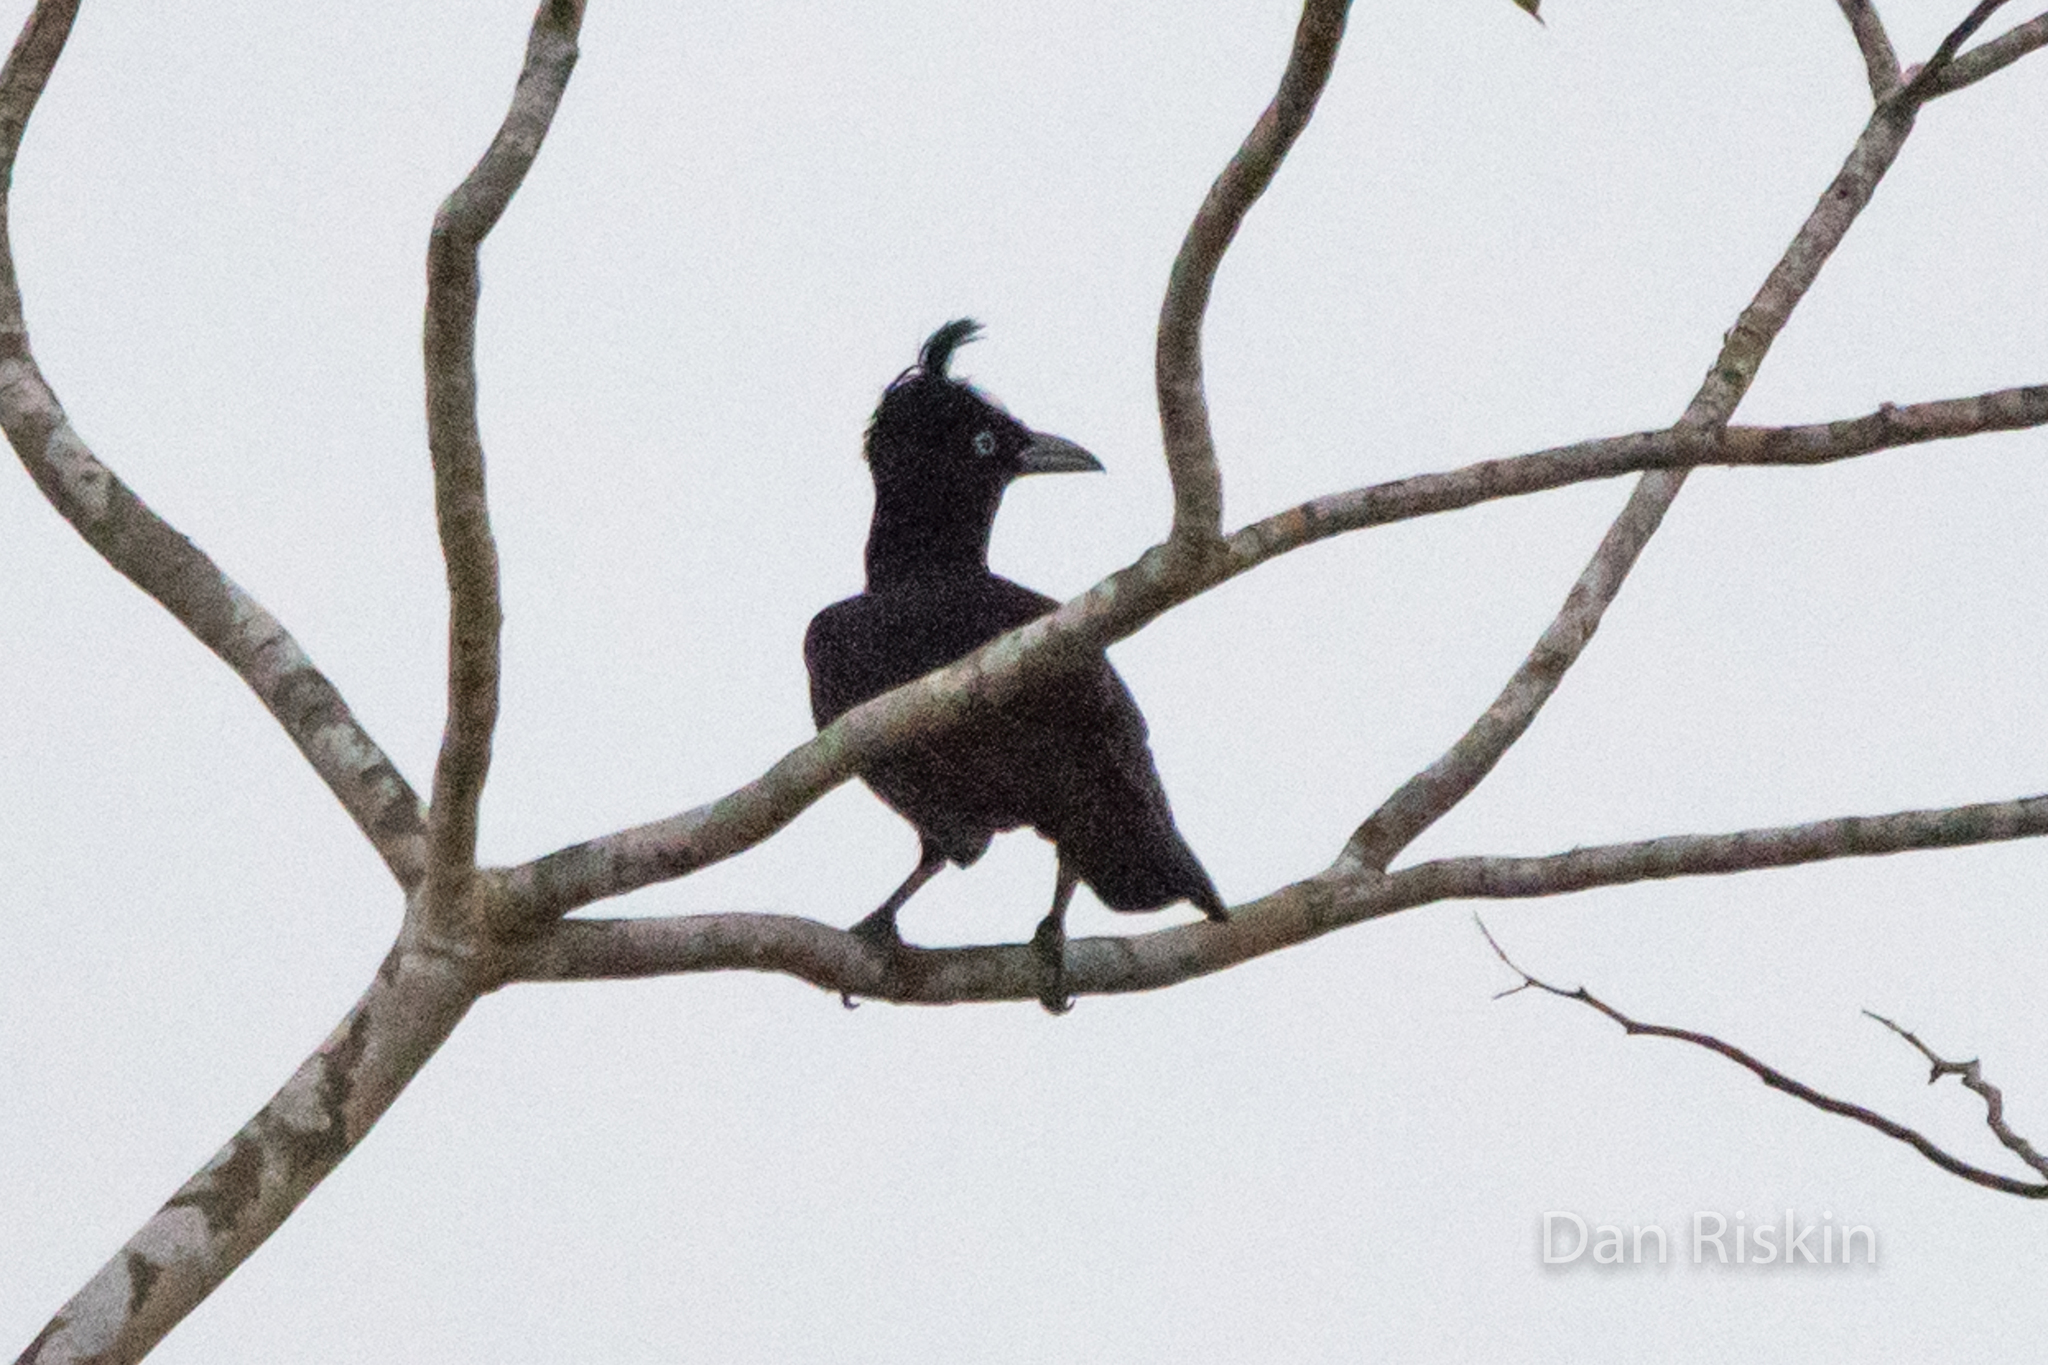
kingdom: Animalia
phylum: Chordata
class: Aves
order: Passeriformes
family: Cotingidae
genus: Cephalopterus
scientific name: Cephalopterus ornatus
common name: Amazonian umbrellabird
